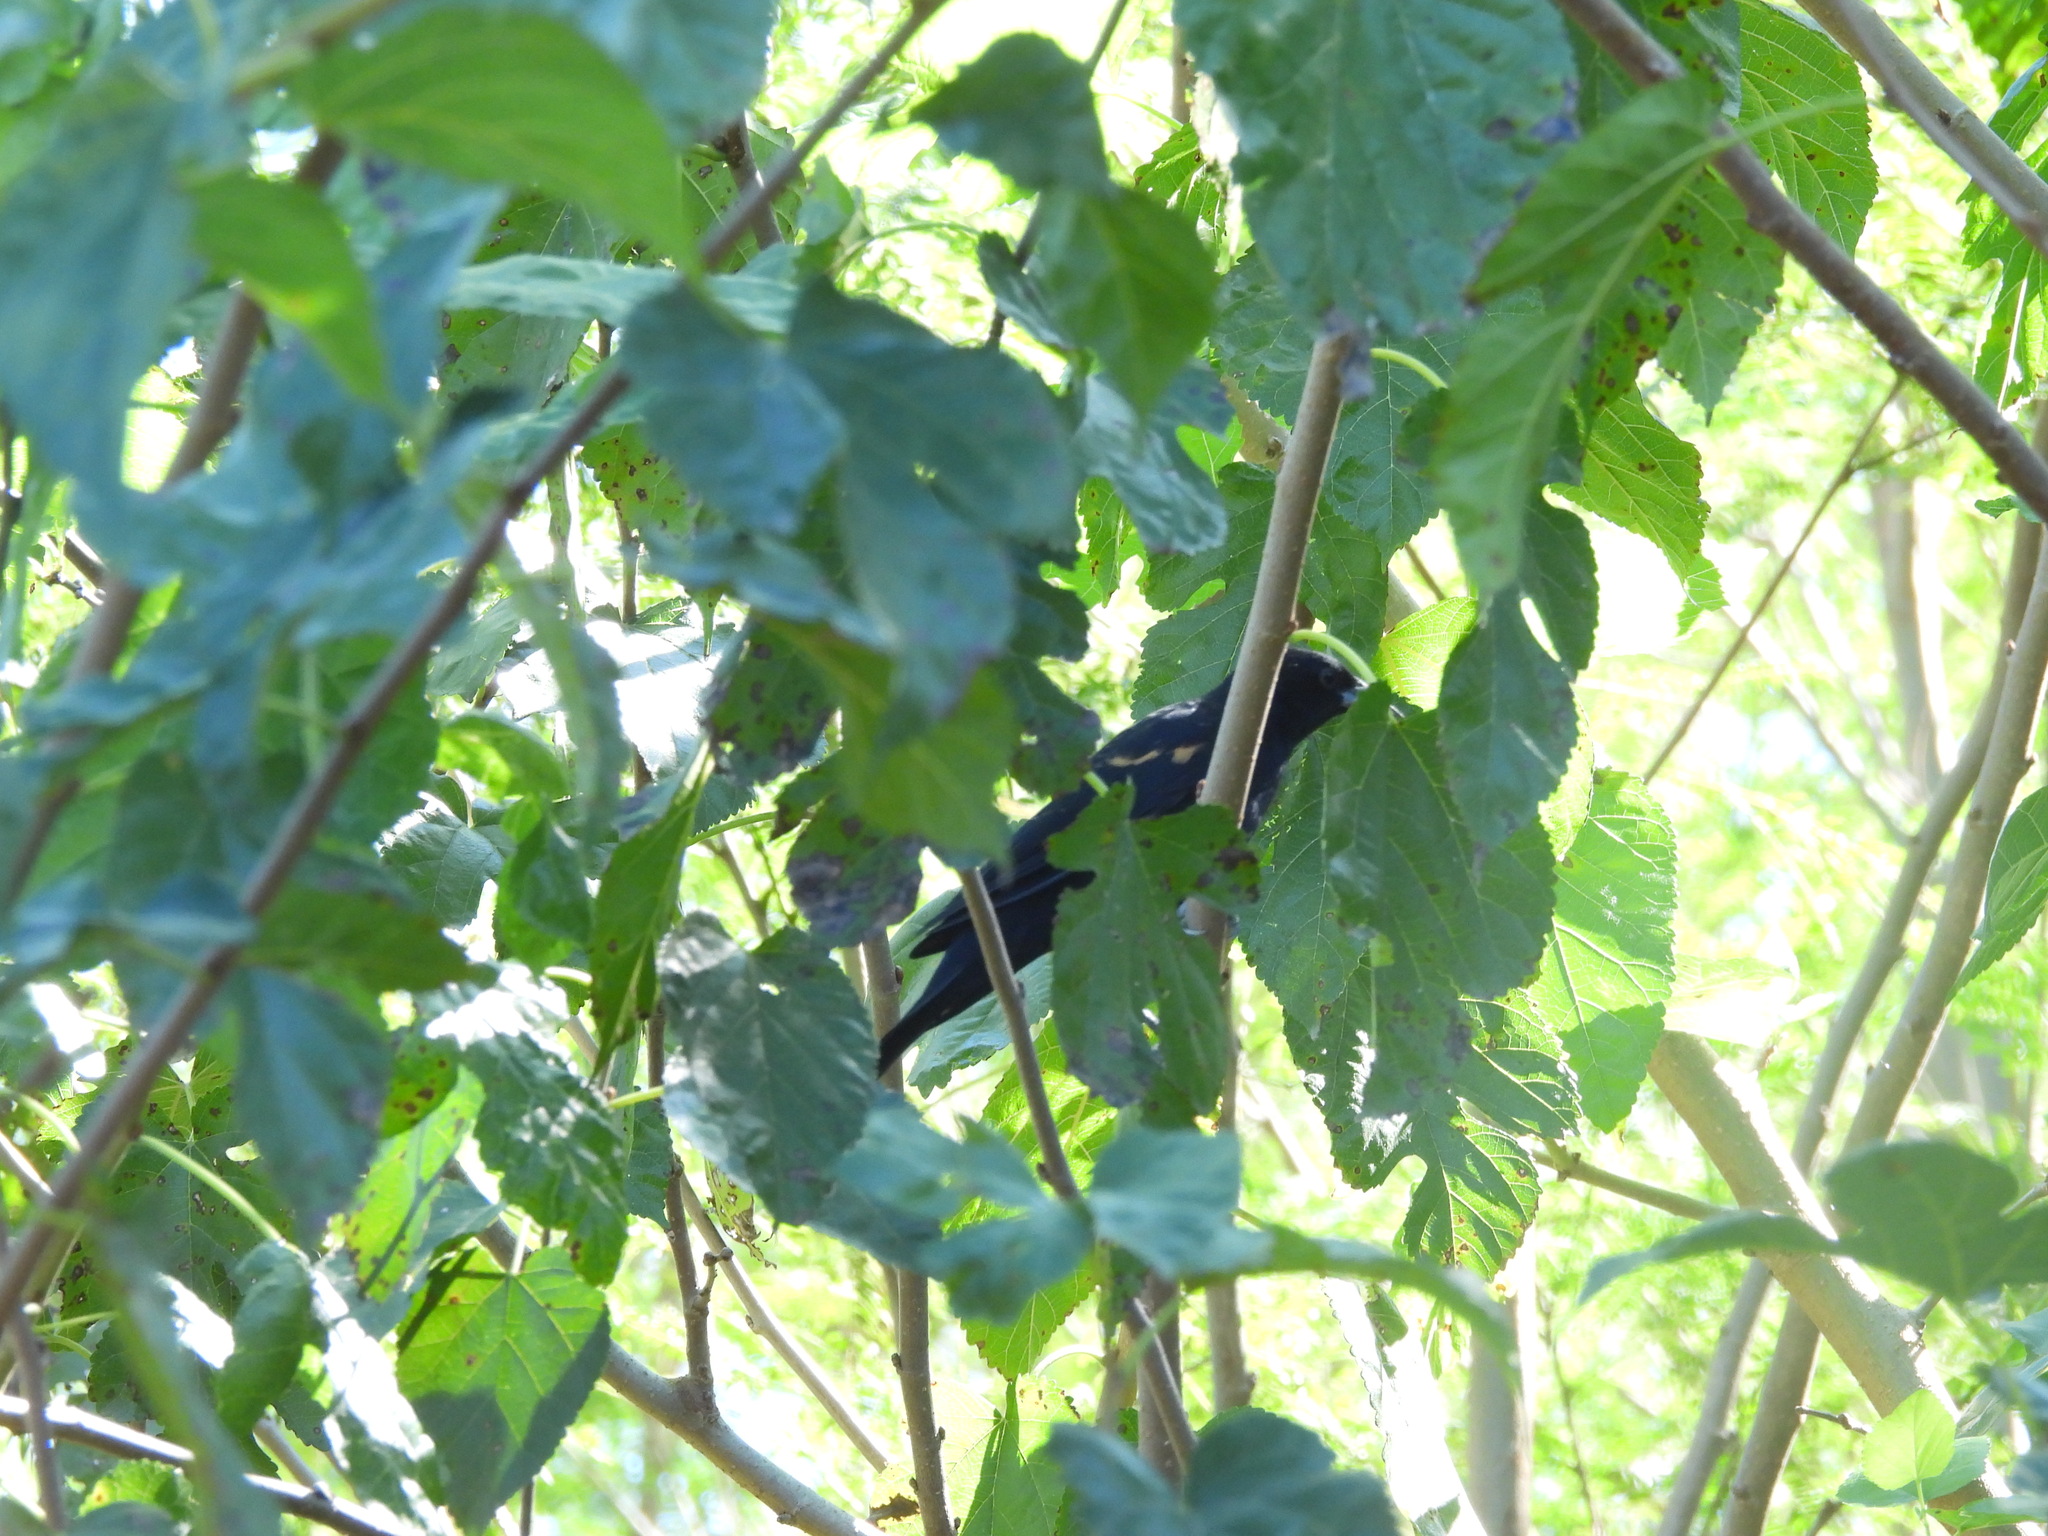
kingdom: Animalia
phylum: Chordata
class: Aves
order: Passeriformes
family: Icteridae
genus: Agelaius
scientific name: Agelaius phoeniceus
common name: Red-winged blackbird
